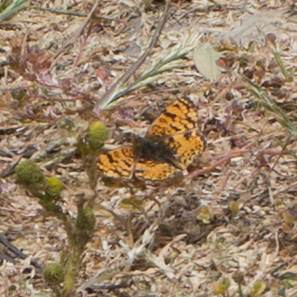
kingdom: Animalia
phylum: Arthropoda
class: Insecta
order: Lepidoptera
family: Nymphalidae
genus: Eresia
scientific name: Eresia aveyrona
